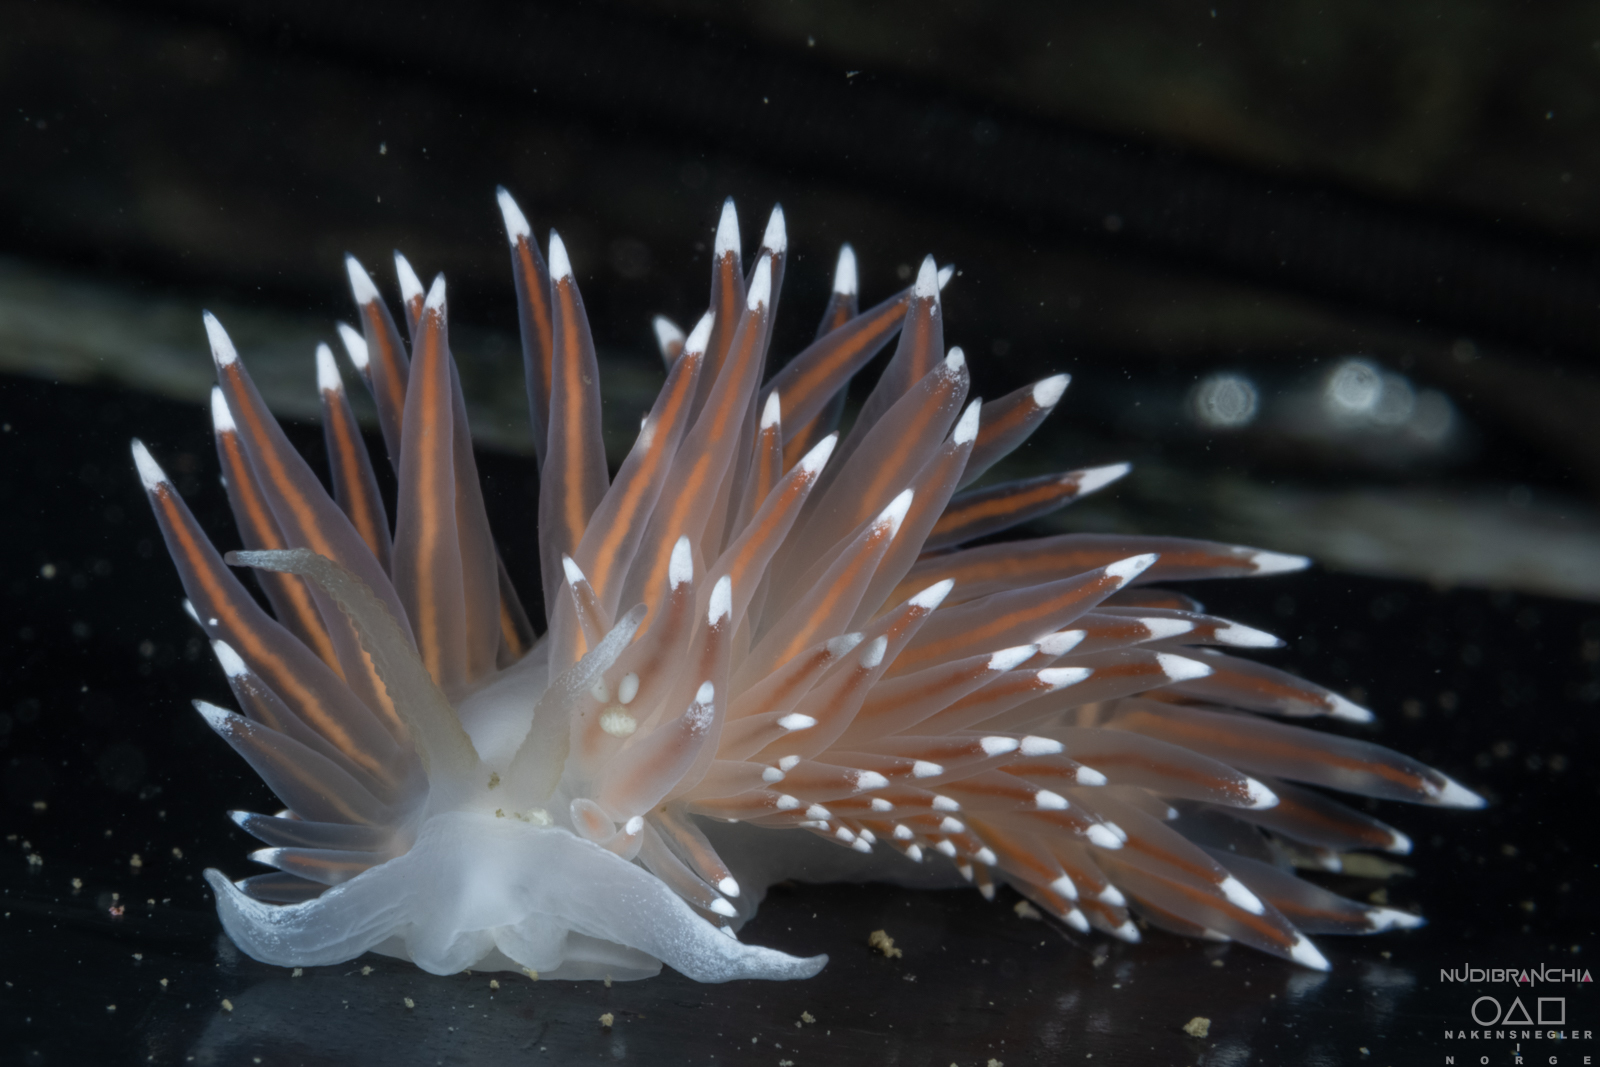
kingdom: Animalia
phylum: Mollusca
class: Gastropoda
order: Nudibranchia
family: Coryphellidae
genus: Coryphella
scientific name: Coryphella browni
